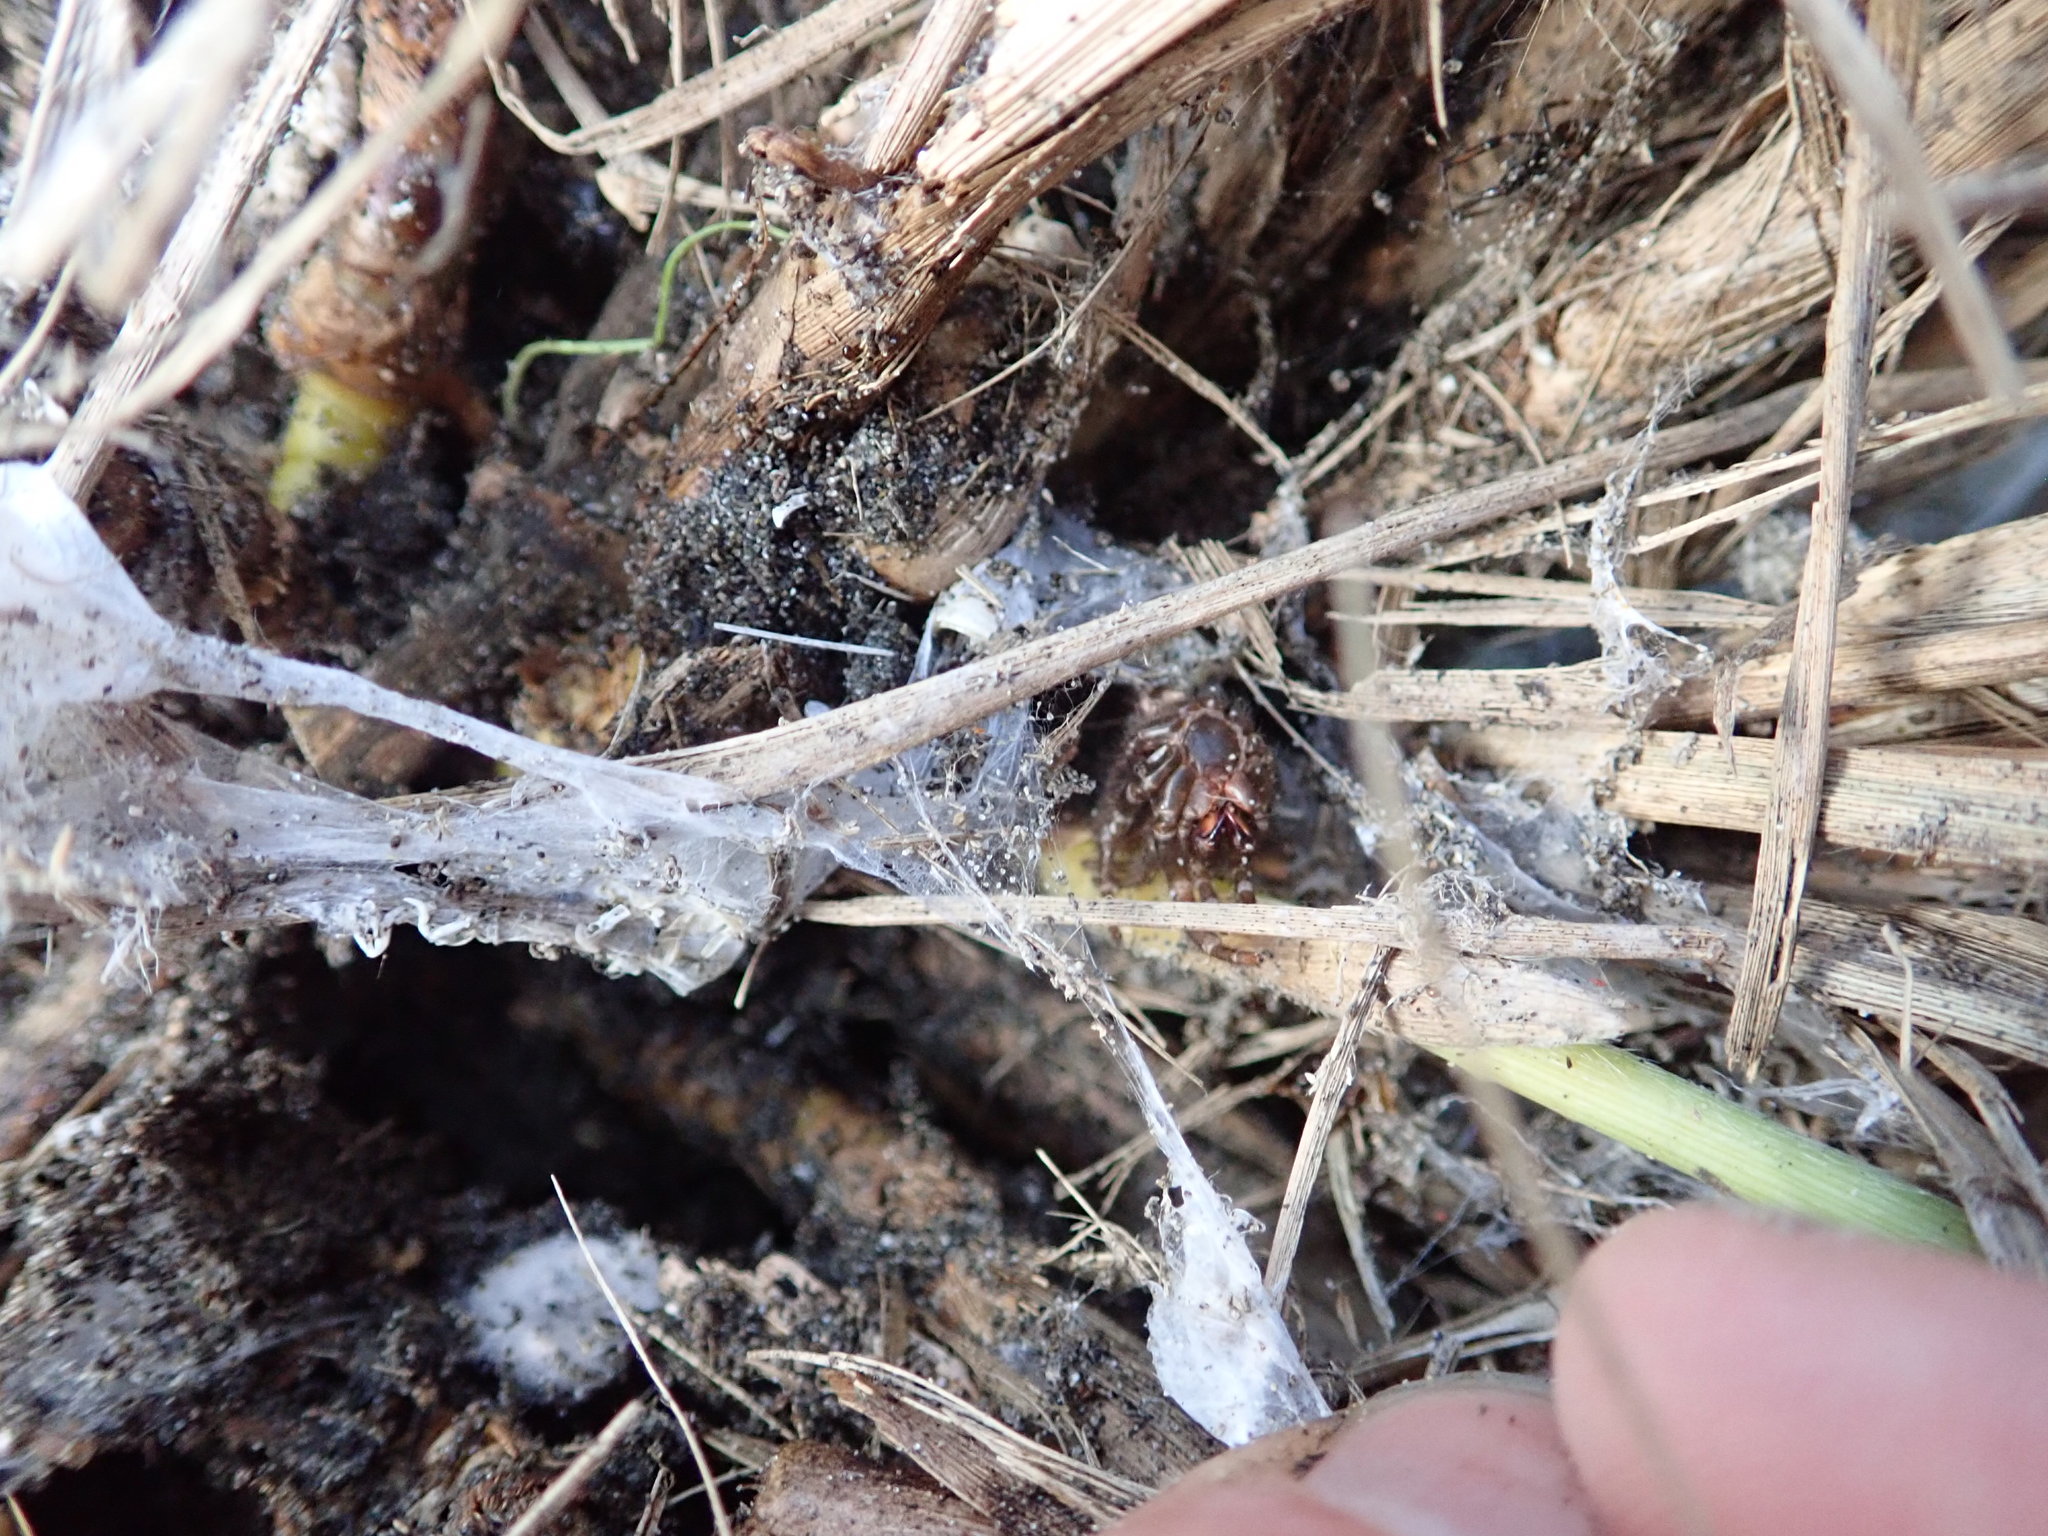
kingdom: Animalia
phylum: Arthropoda
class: Arachnida
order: Araneae
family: Theridiidae
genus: Steatoda
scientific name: Steatoda capensis
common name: Cobweb weaver
